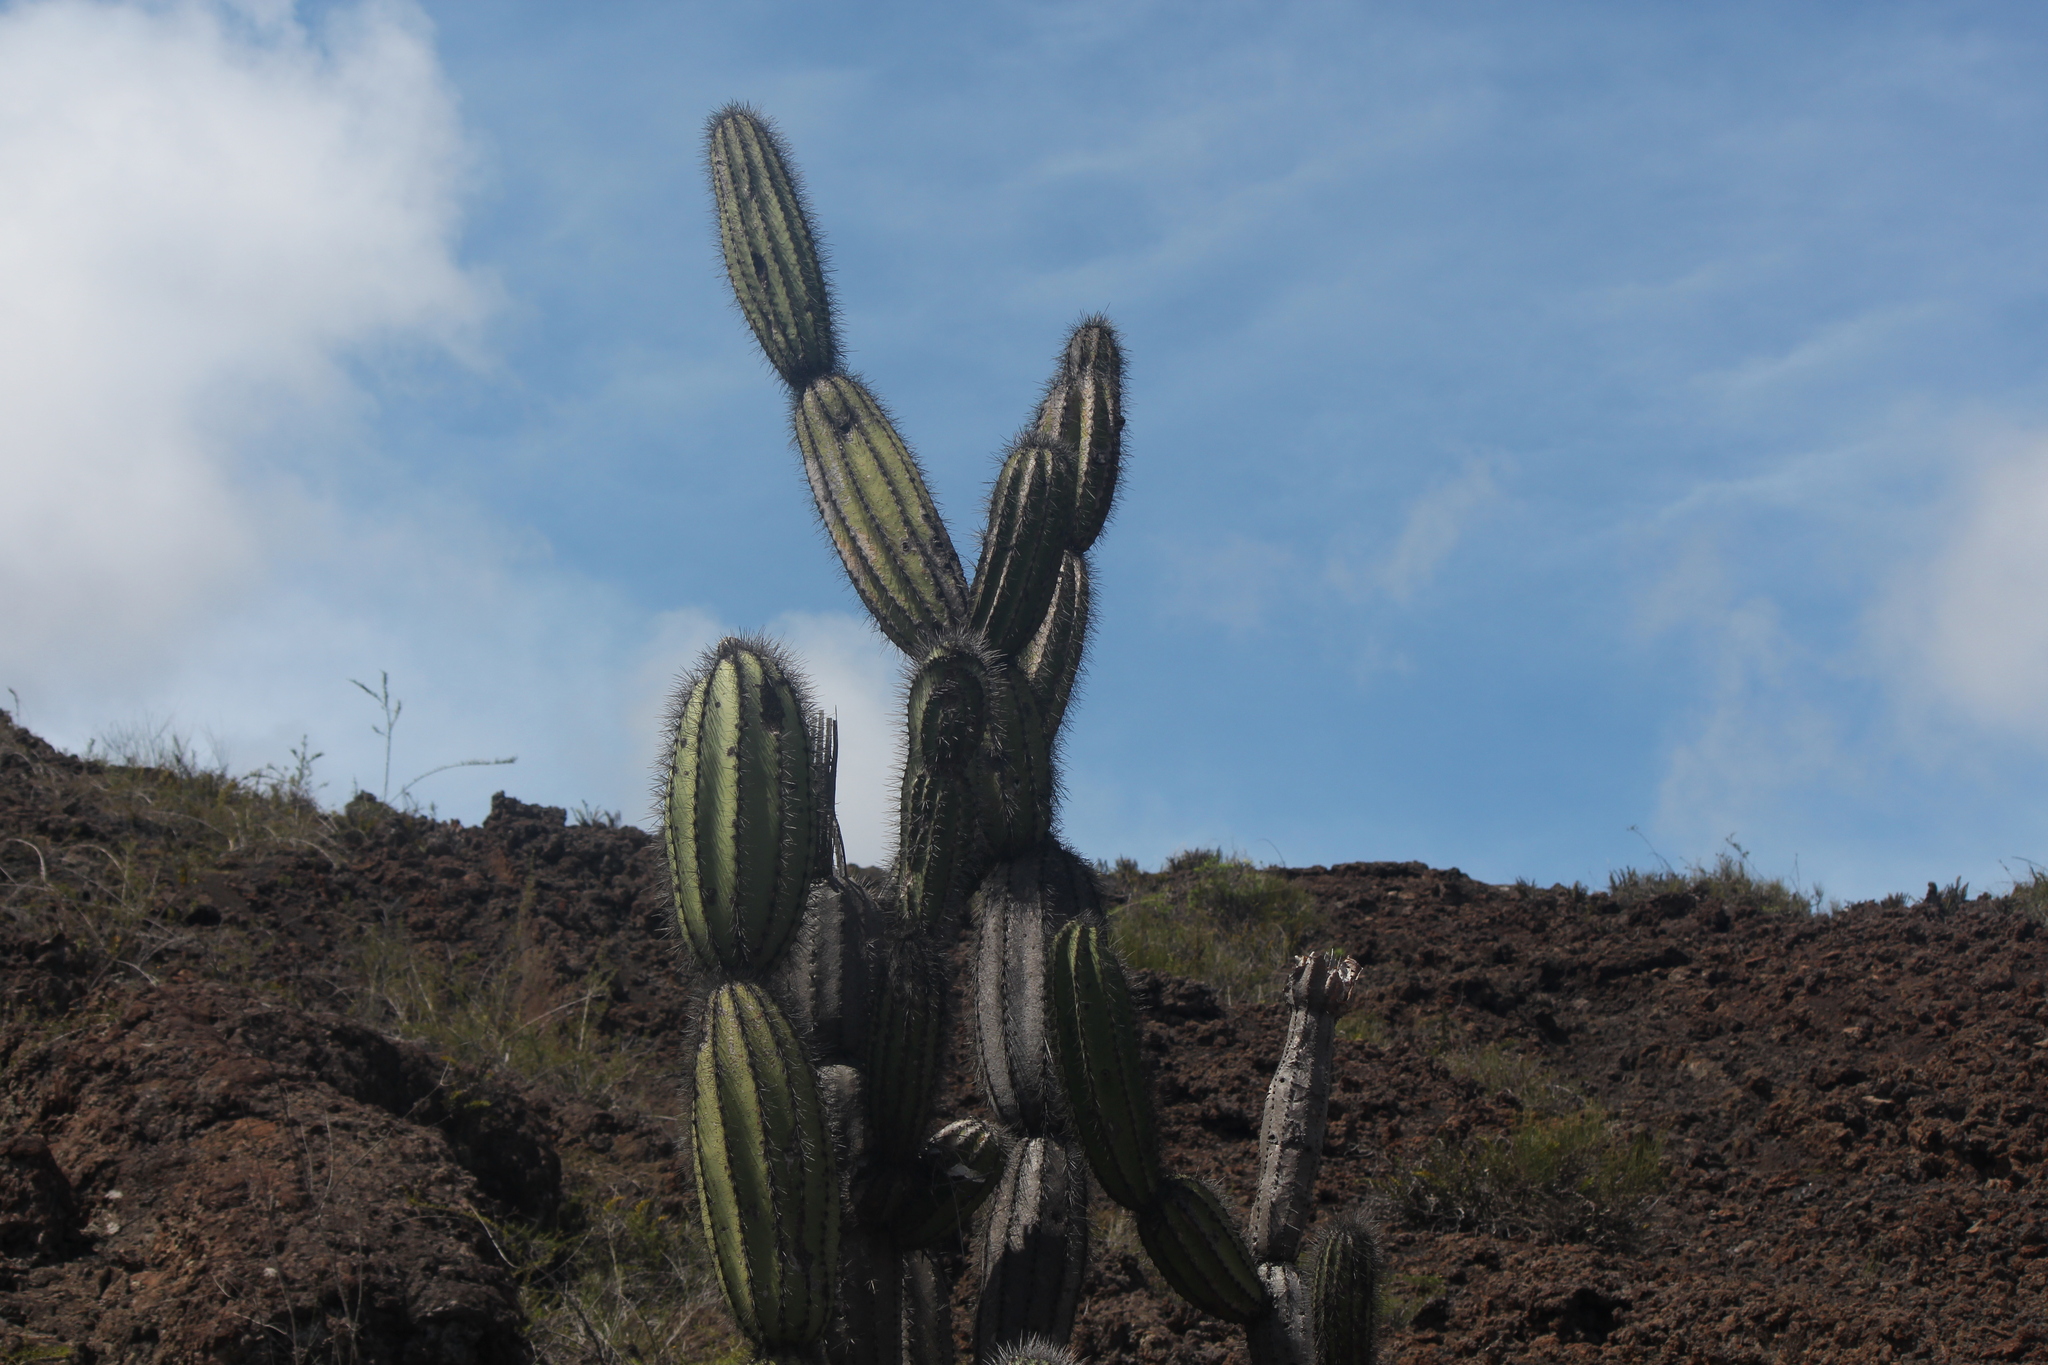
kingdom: Plantae
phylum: Tracheophyta
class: Magnoliopsida
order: Caryophyllales
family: Cactaceae
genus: Jasminocereus
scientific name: Jasminocereus thouarsii
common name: Candelabra cactus
